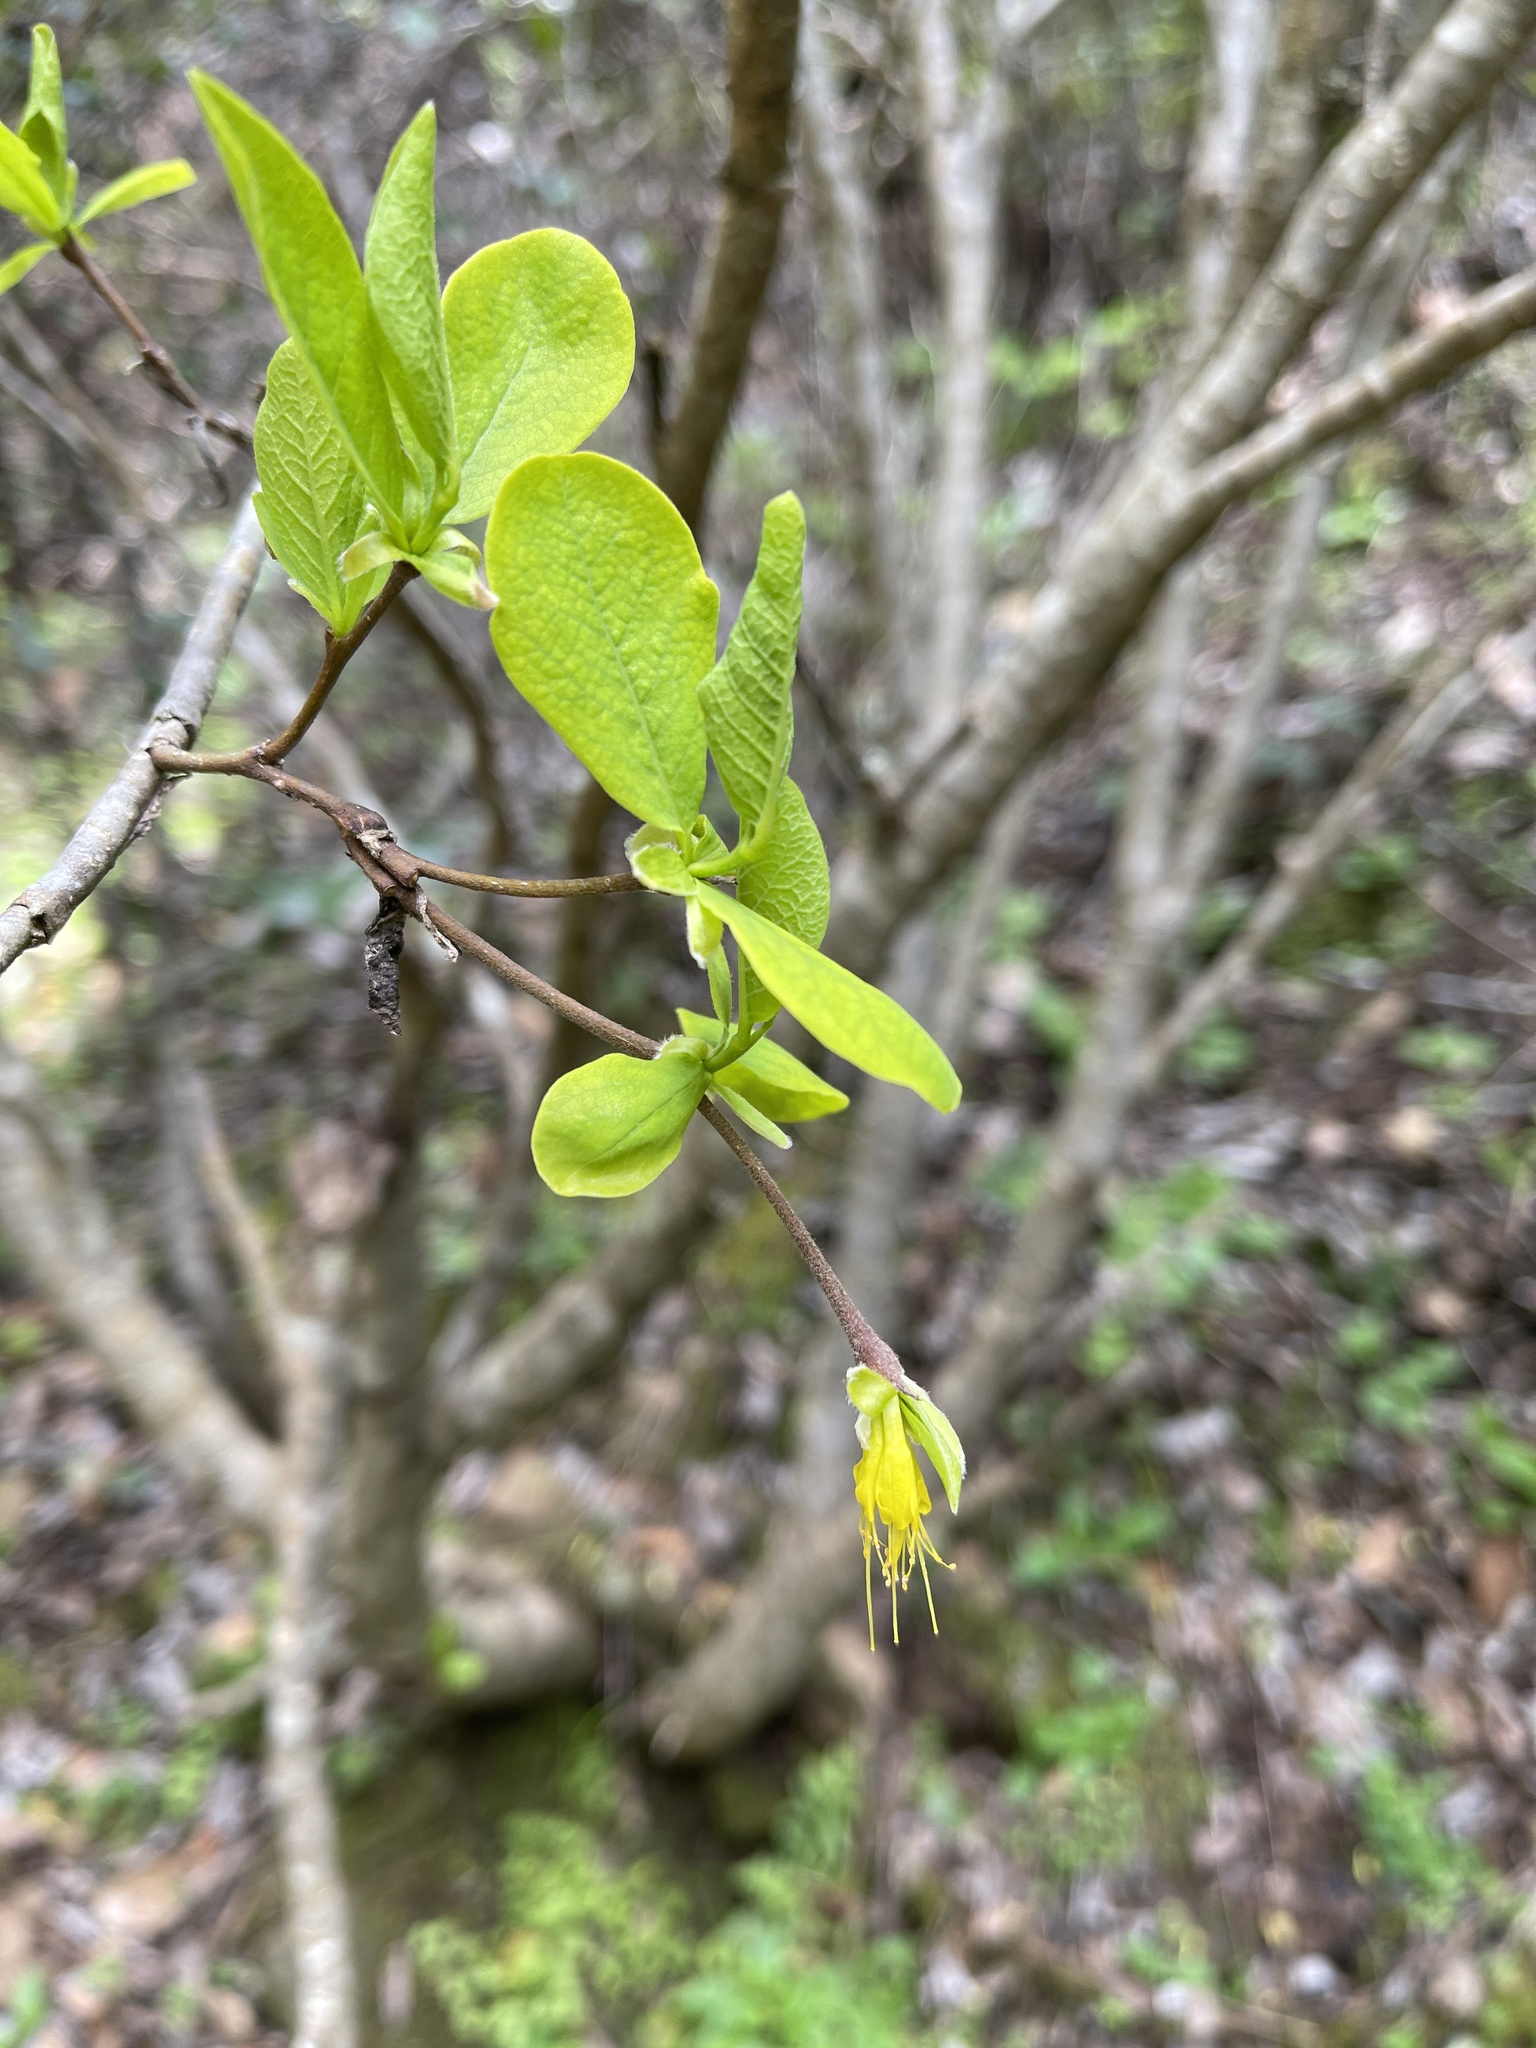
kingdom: Plantae
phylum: Tracheophyta
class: Magnoliopsida
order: Malvales
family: Thymelaeaceae
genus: Dirca
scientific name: Dirca occidentalis
